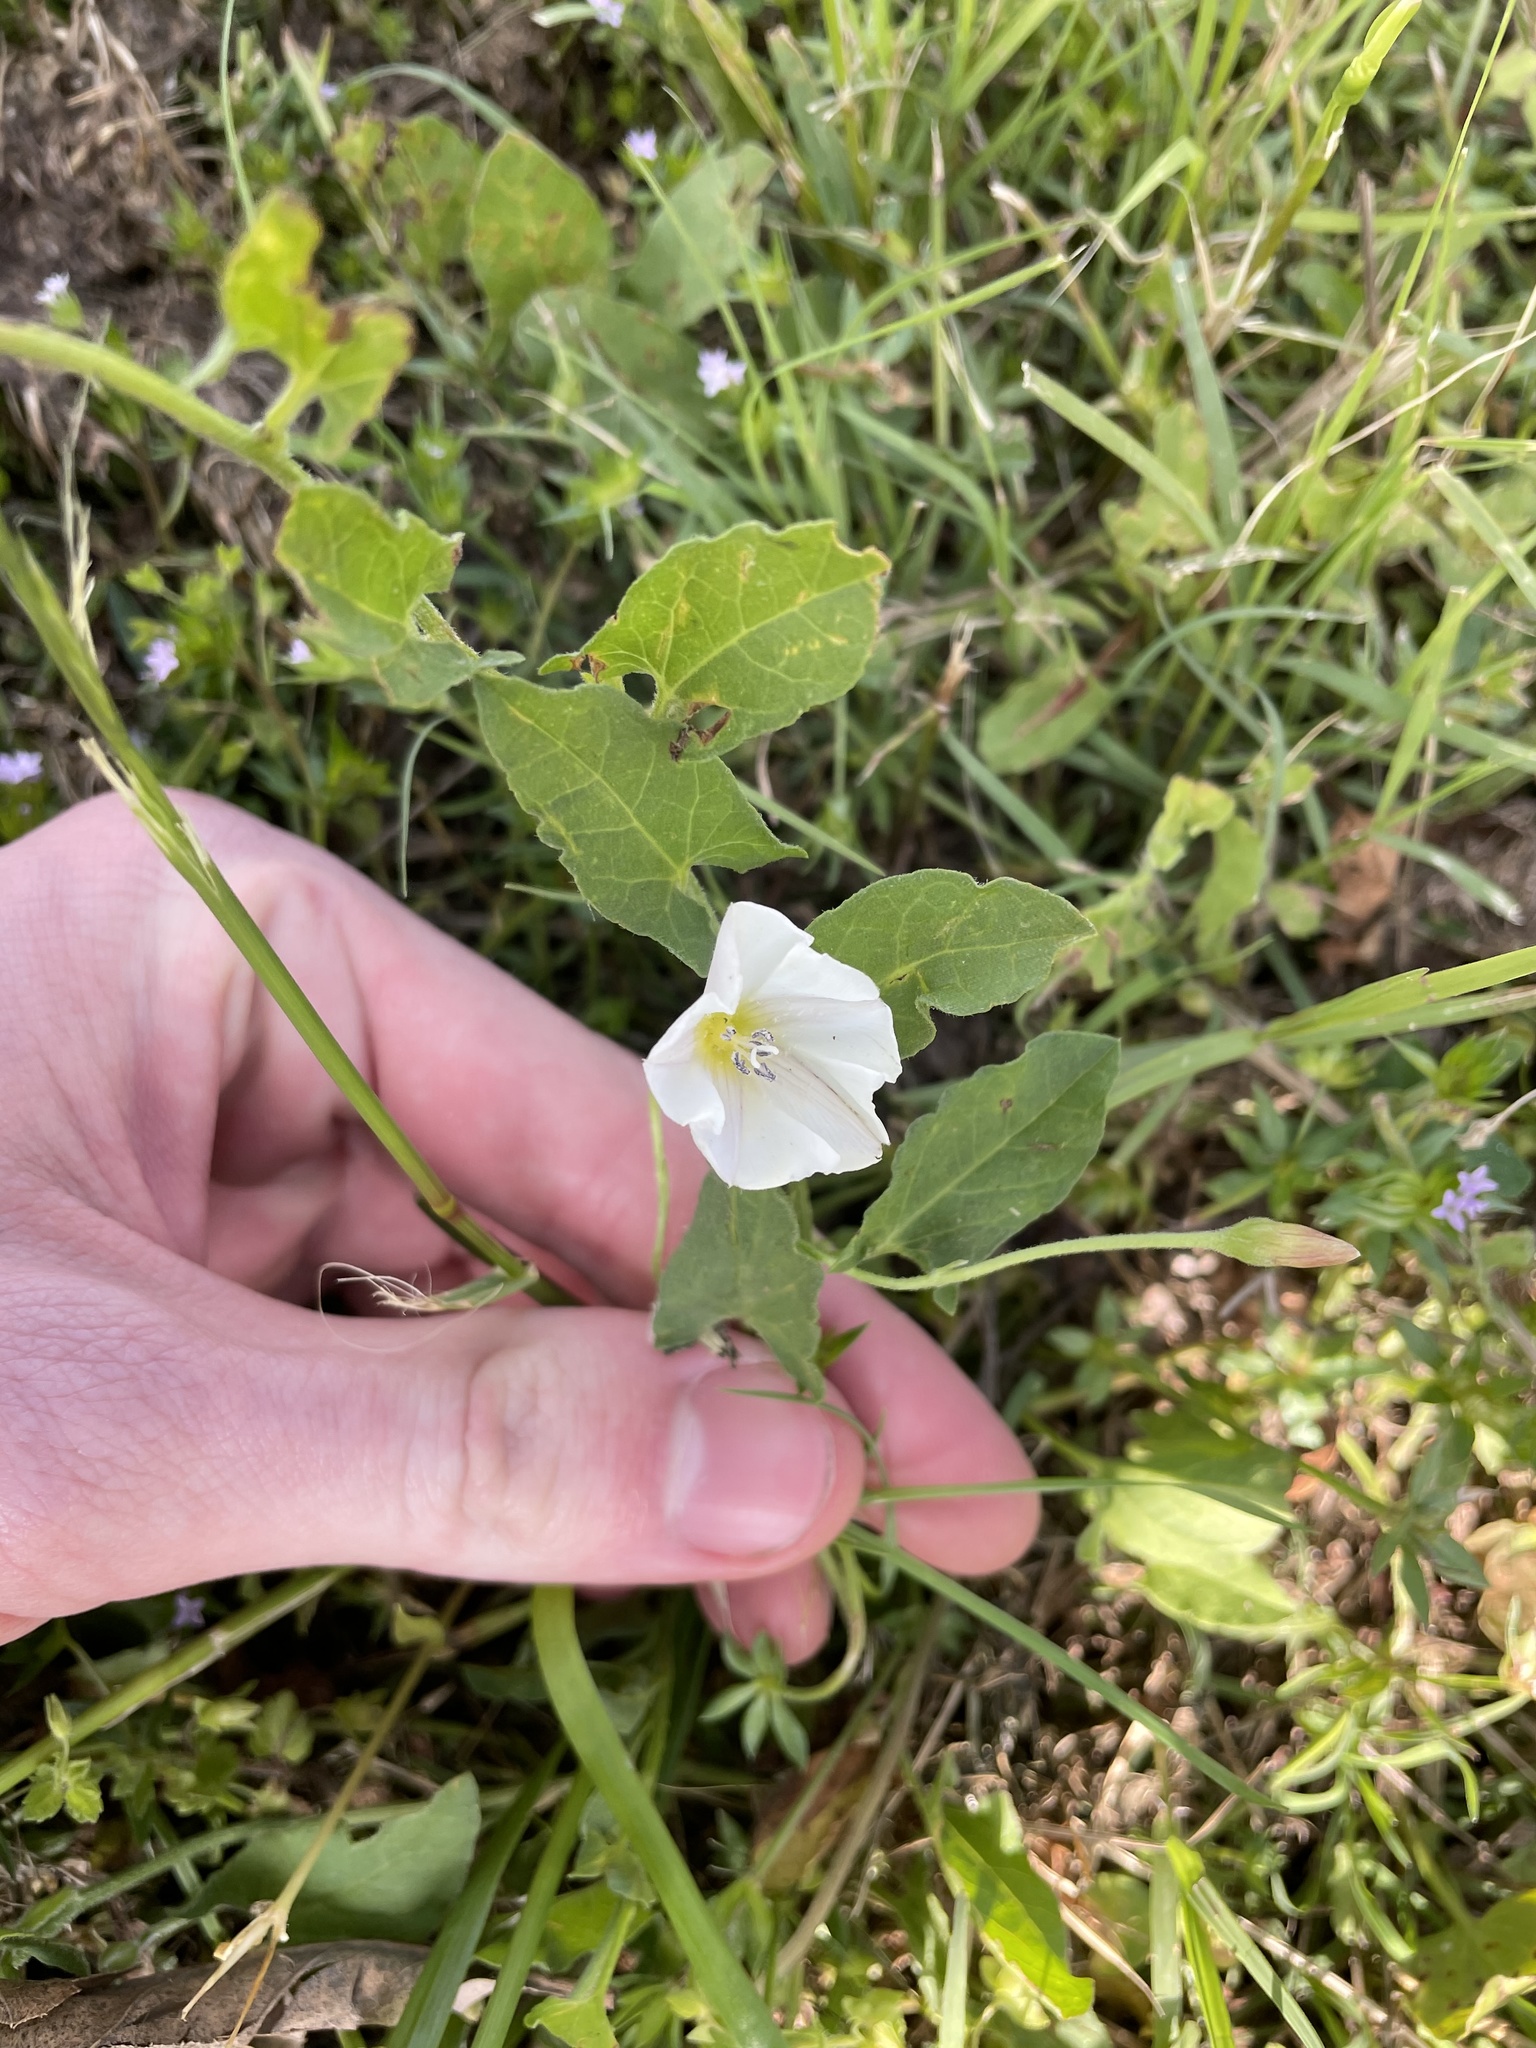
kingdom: Plantae
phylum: Tracheophyta
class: Magnoliopsida
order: Solanales
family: Convolvulaceae
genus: Convolvulus
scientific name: Convolvulus arvensis
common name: Field bindweed
